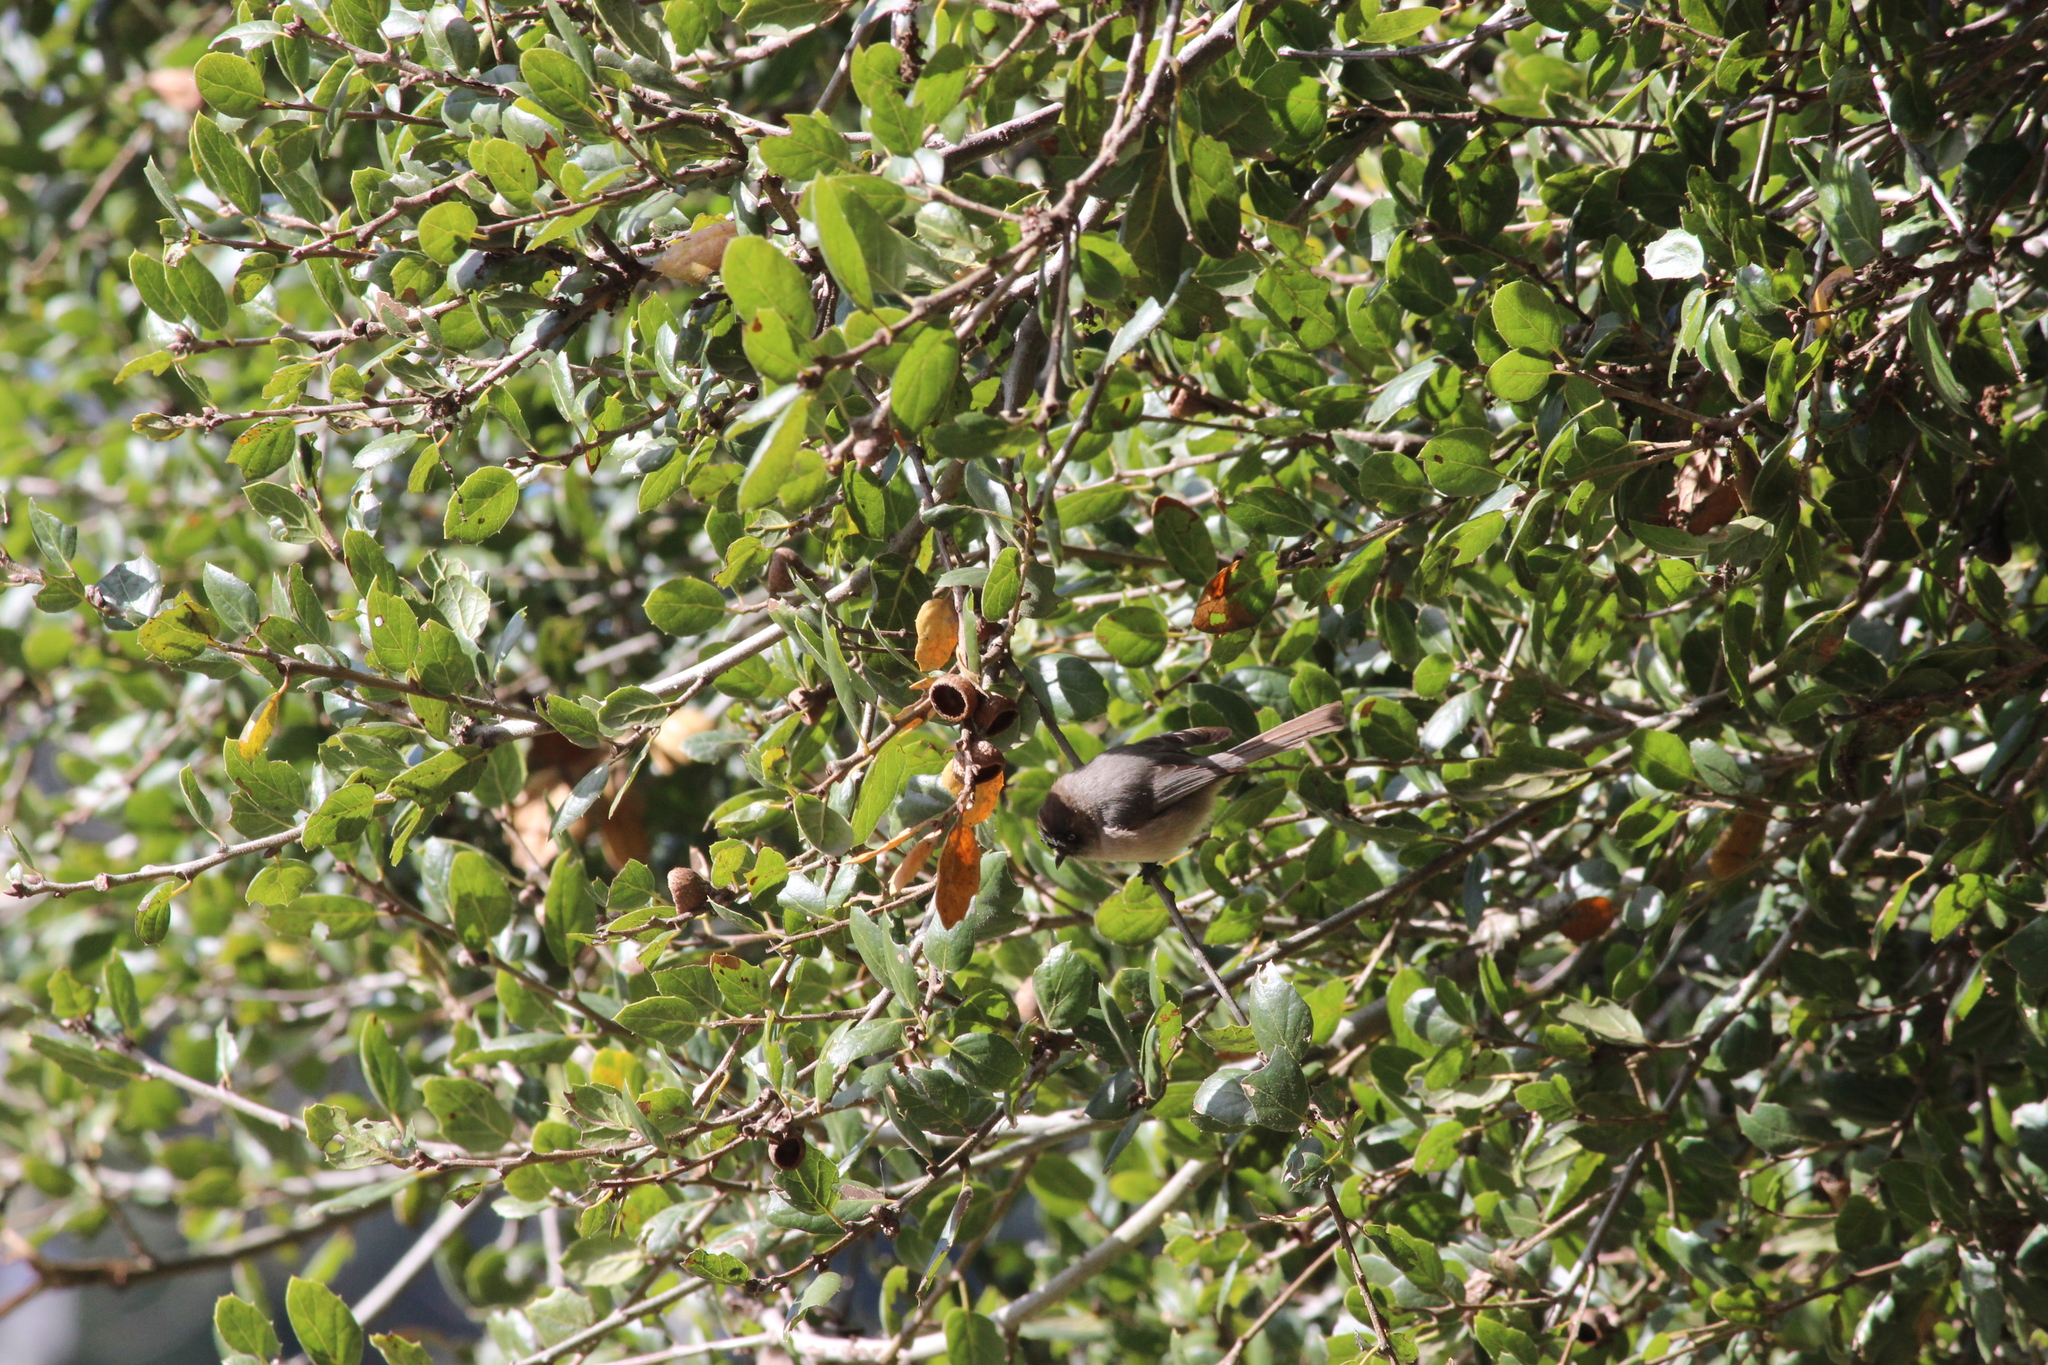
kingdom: Animalia
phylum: Chordata
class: Aves
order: Passeriformes
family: Aegithalidae
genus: Psaltriparus
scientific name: Psaltriparus minimus
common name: American bushtit
